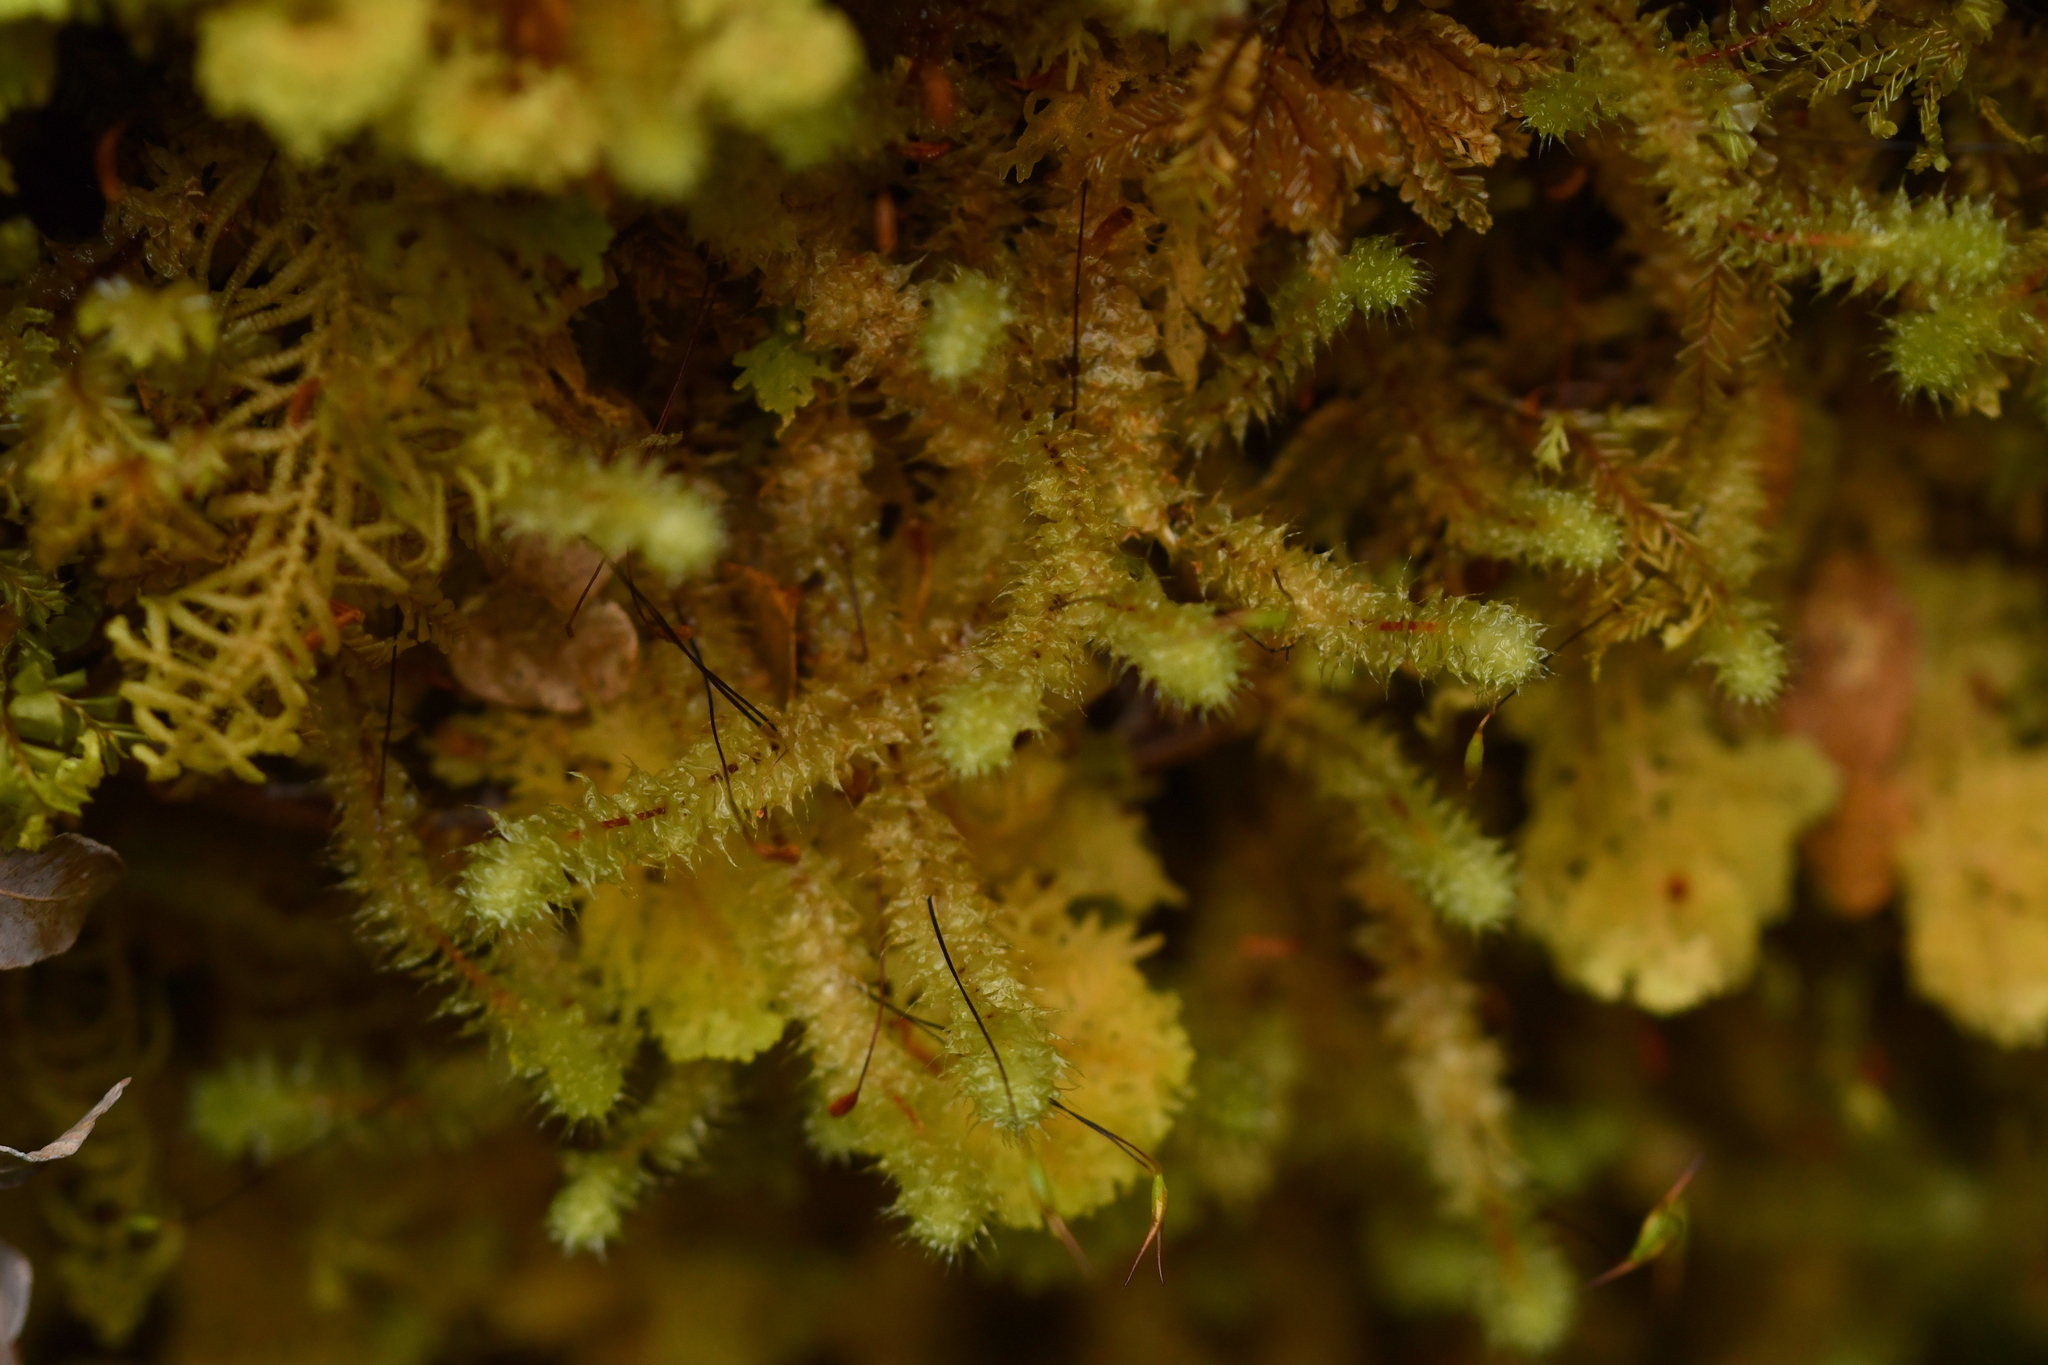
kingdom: Plantae
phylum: Bryophyta
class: Bryopsida
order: Ptychomniales
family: Ptychomniaceae
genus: Ptychomnion
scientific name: Ptychomnion aciculare
